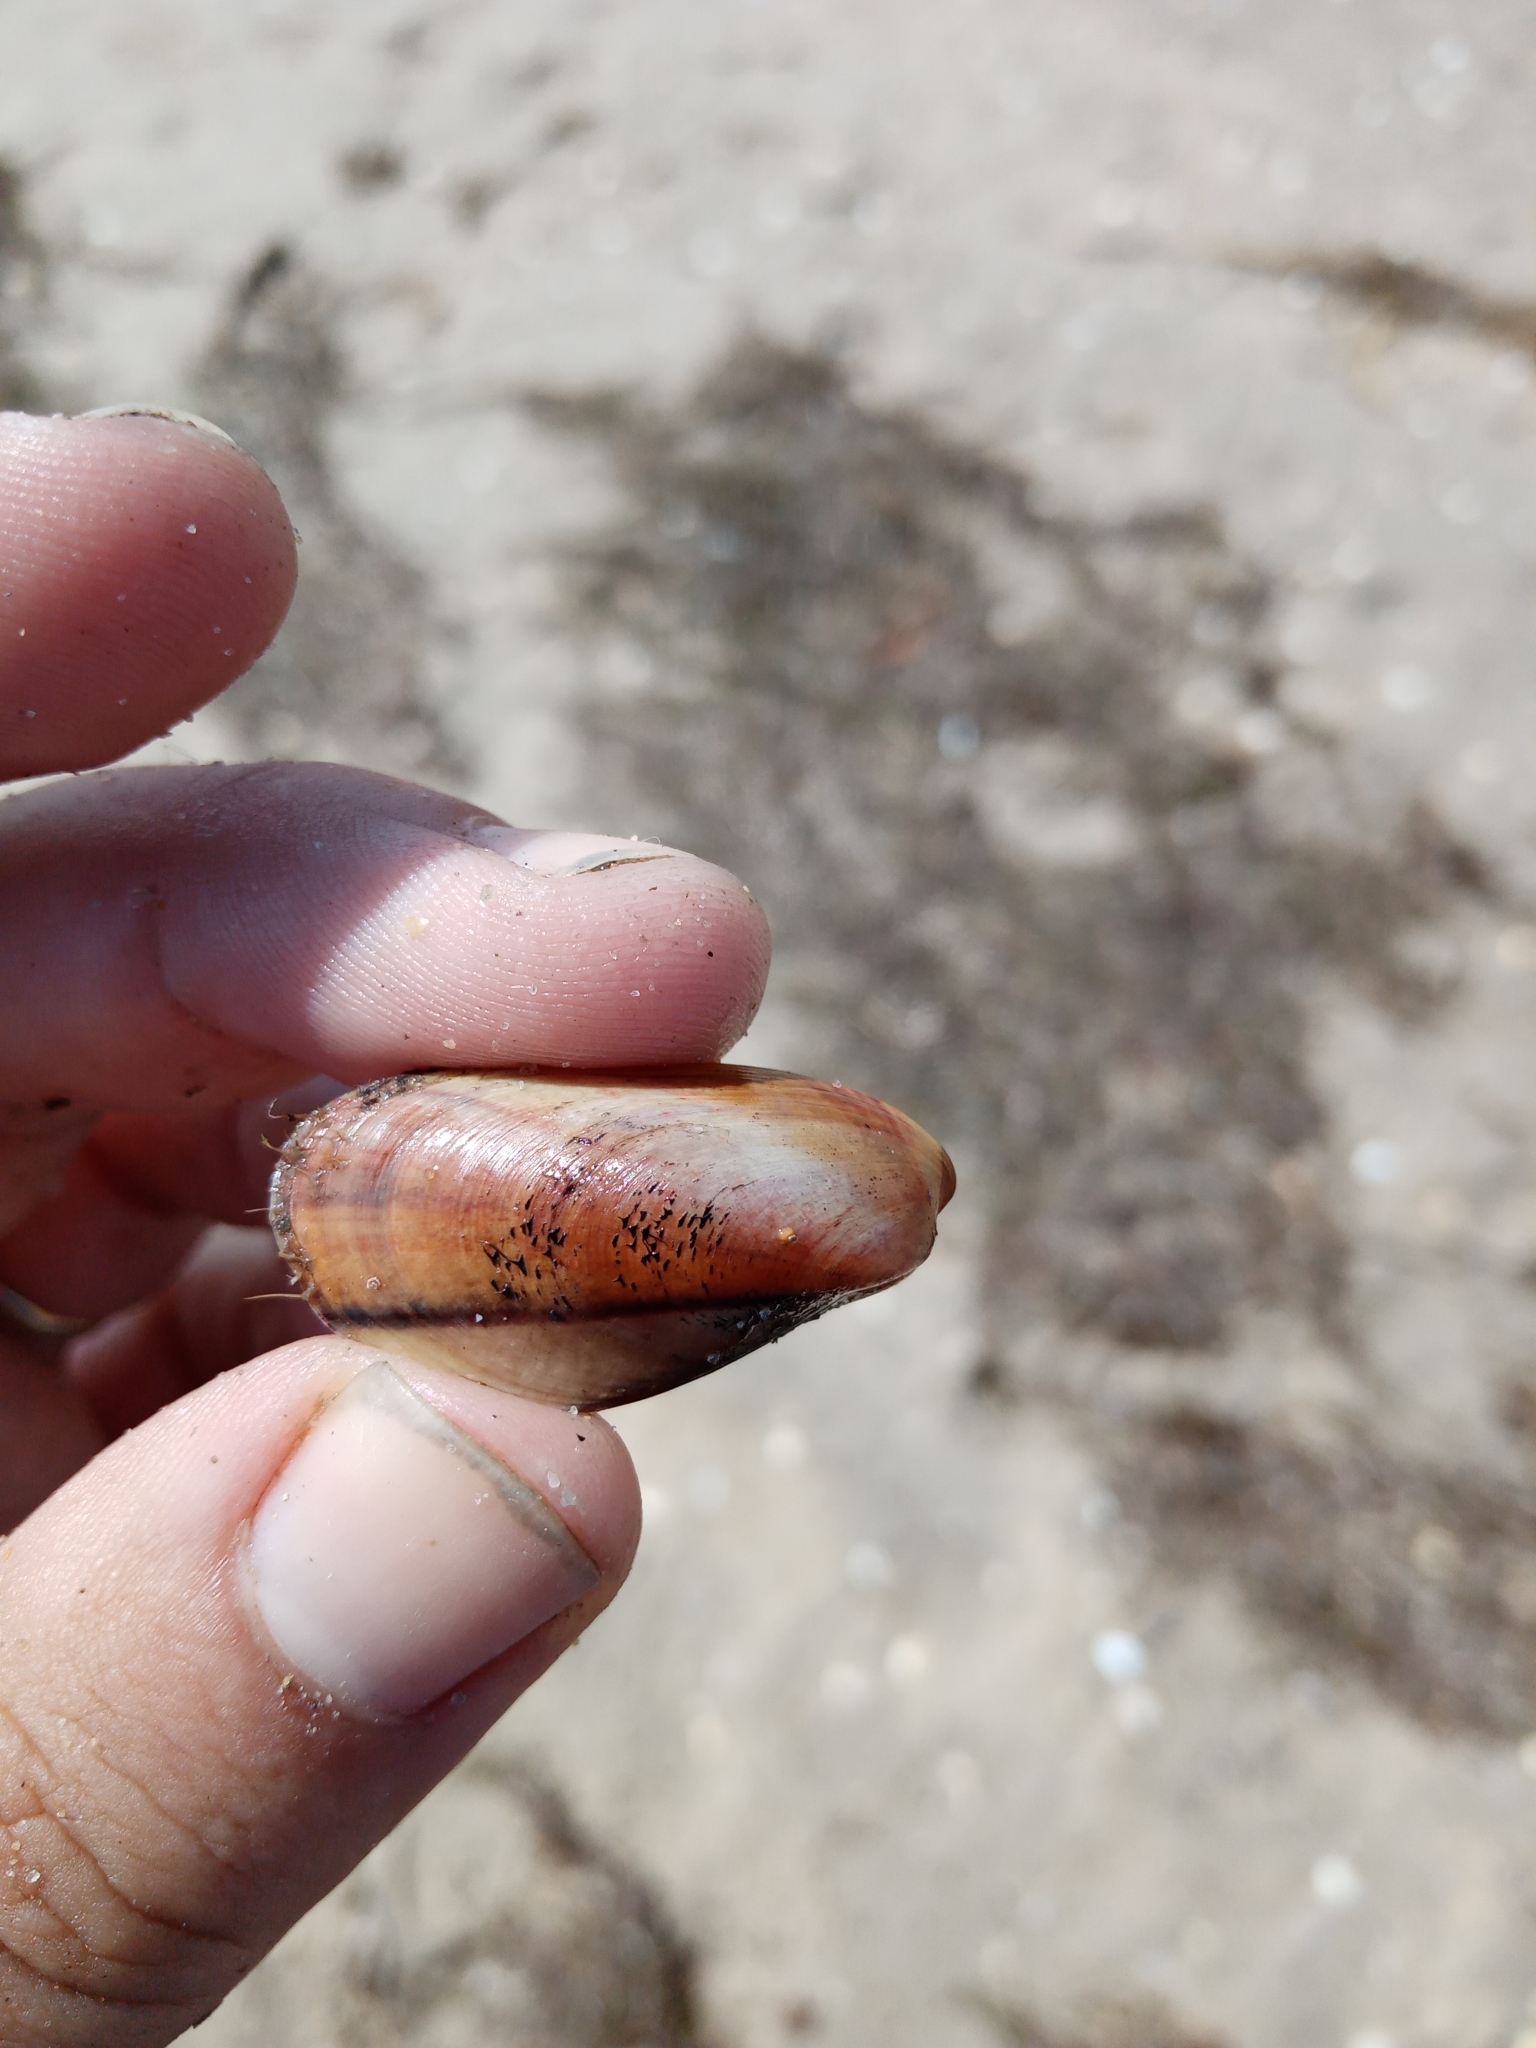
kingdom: Animalia
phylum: Mollusca
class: Bivalvia
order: Mytilida
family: Mytilidae
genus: Modiolus
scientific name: Modiolus adriaticus
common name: Adriatic mussel
